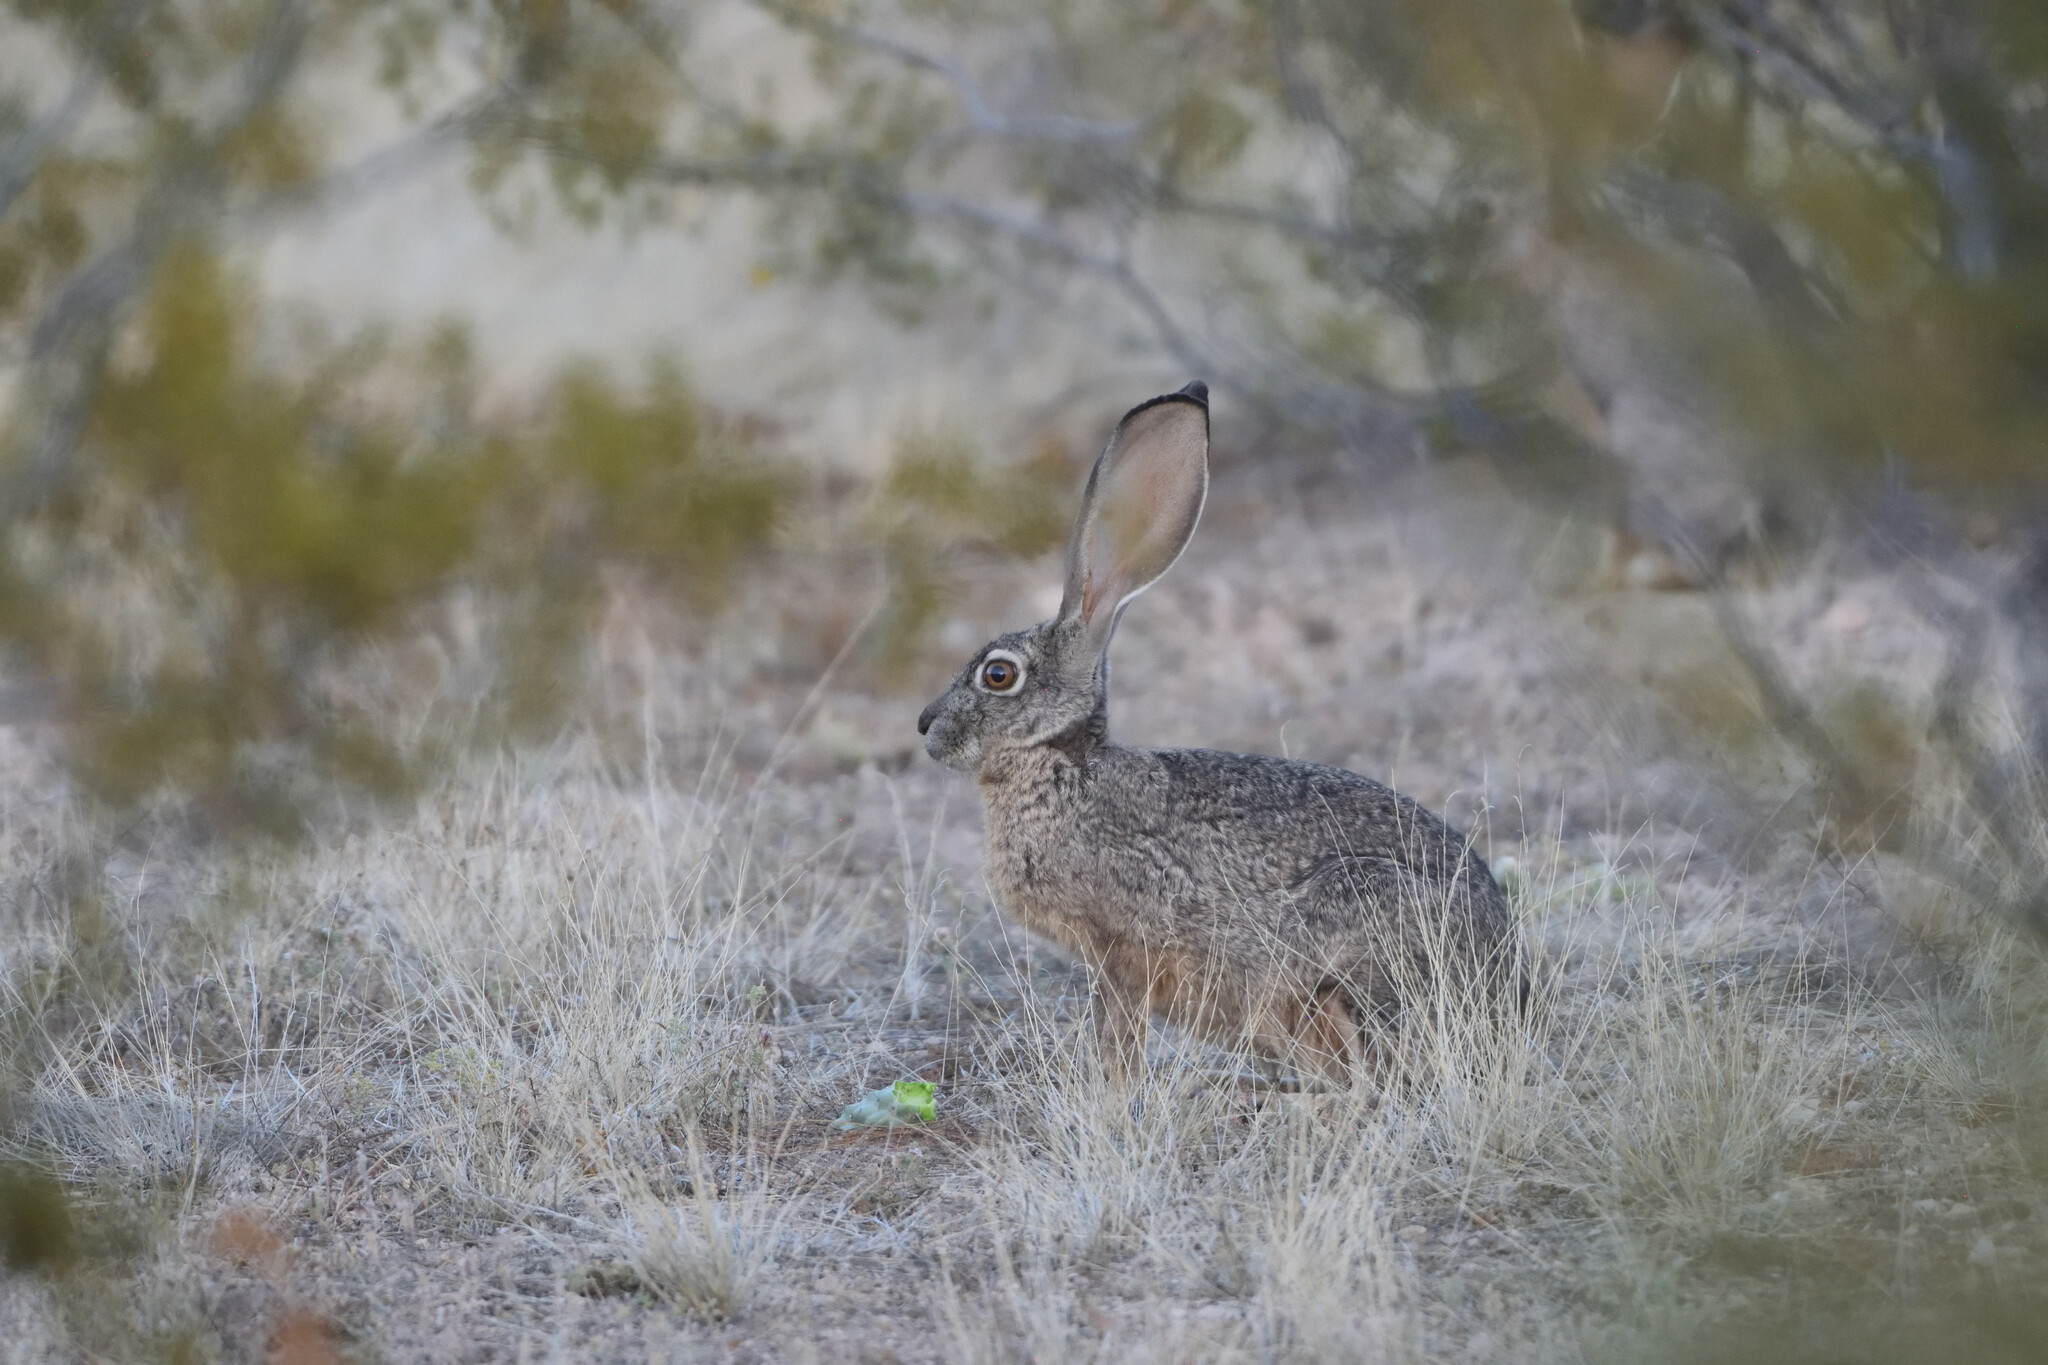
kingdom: Animalia
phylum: Chordata
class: Mammalia
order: Lagomorpha
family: Leporidae
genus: Lepus
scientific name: Lepus californicus
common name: Black-tailed jackrabbit
